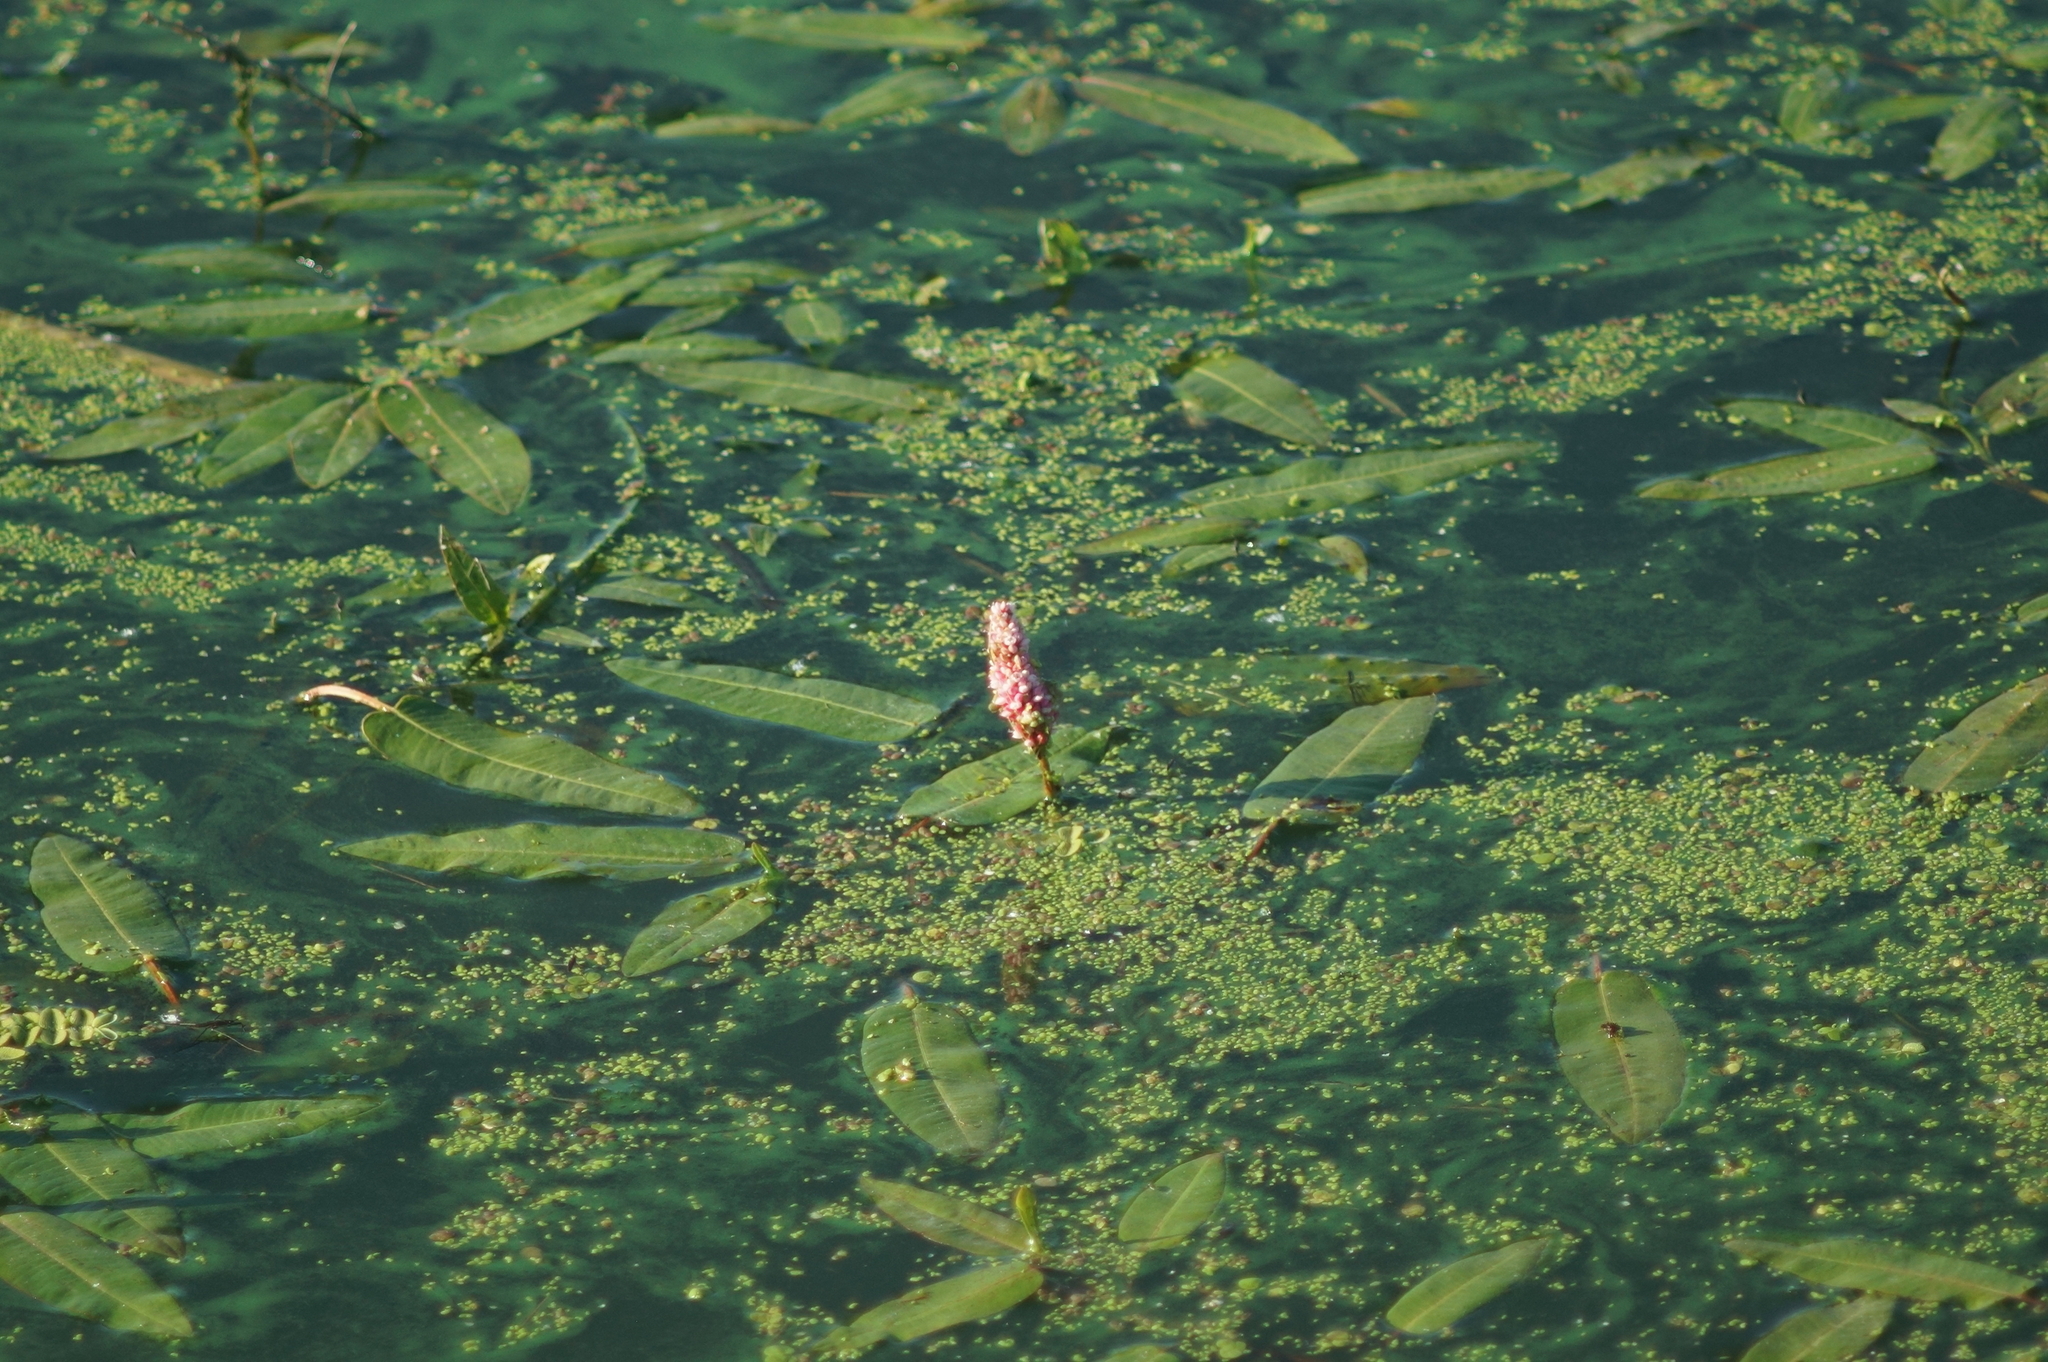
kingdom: Plantae
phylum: Tracheophyta
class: Magnoliopsida
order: Caryophyllales
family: Polygonaceae
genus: Persicaria
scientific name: Persicaria amphibia
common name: Amphibious bistort
